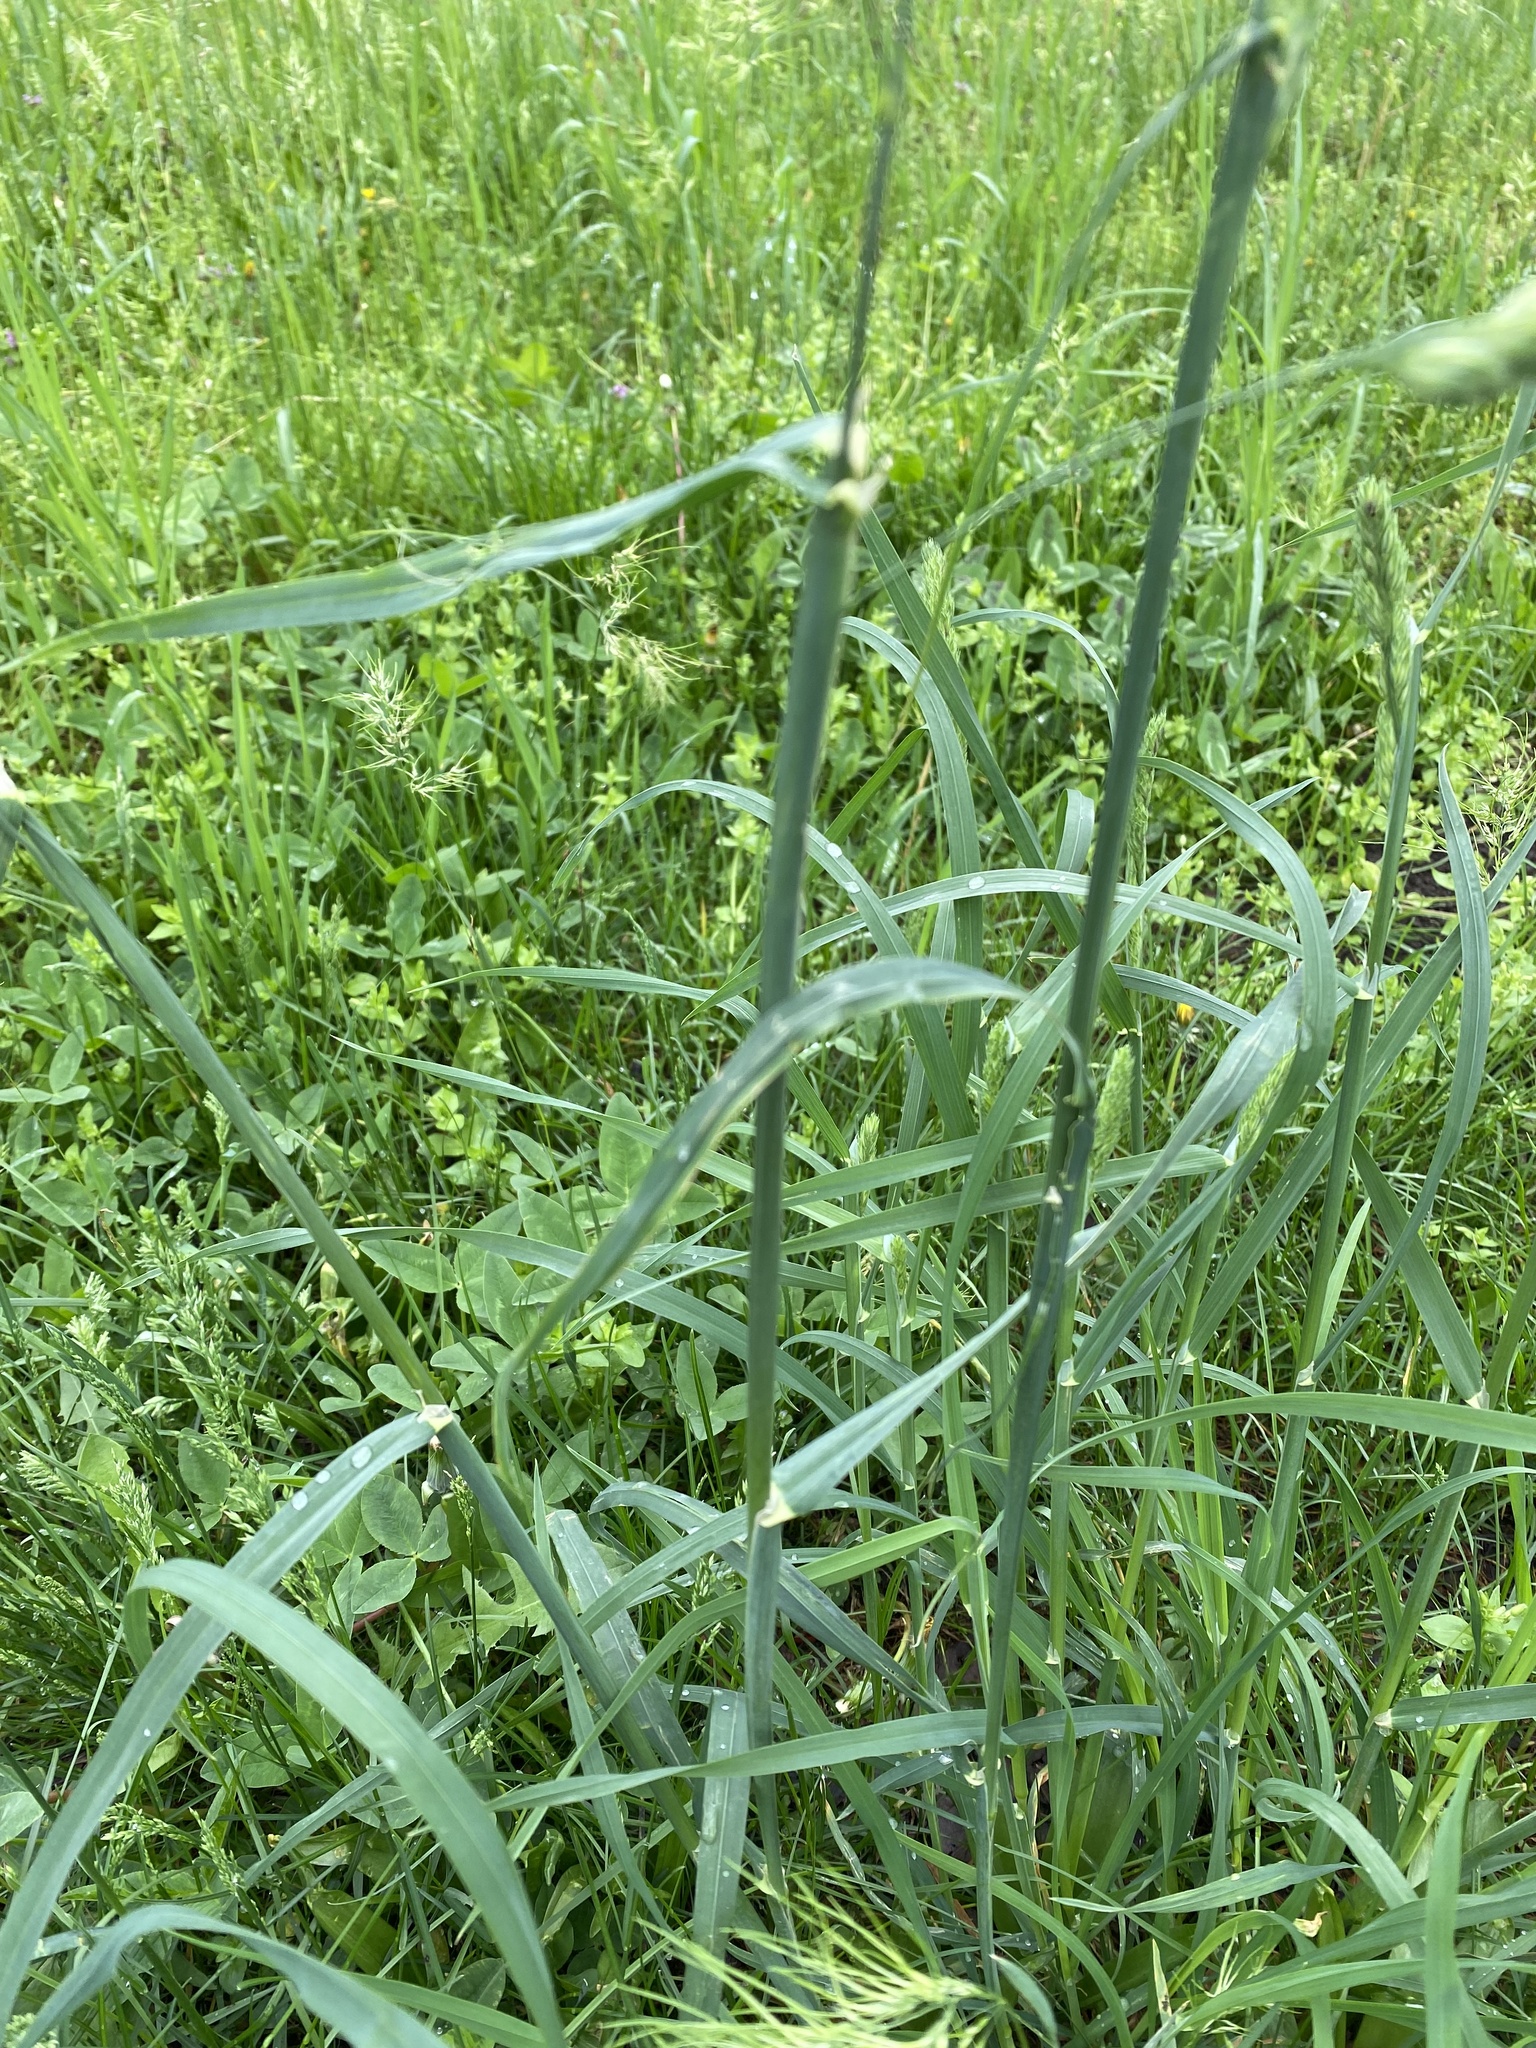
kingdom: Plantae
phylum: Tracheophyta
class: Liliopsida
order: Poales
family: Poaceae
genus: Dactylis
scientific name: Dactylis glomerata
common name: Orchardgrass
